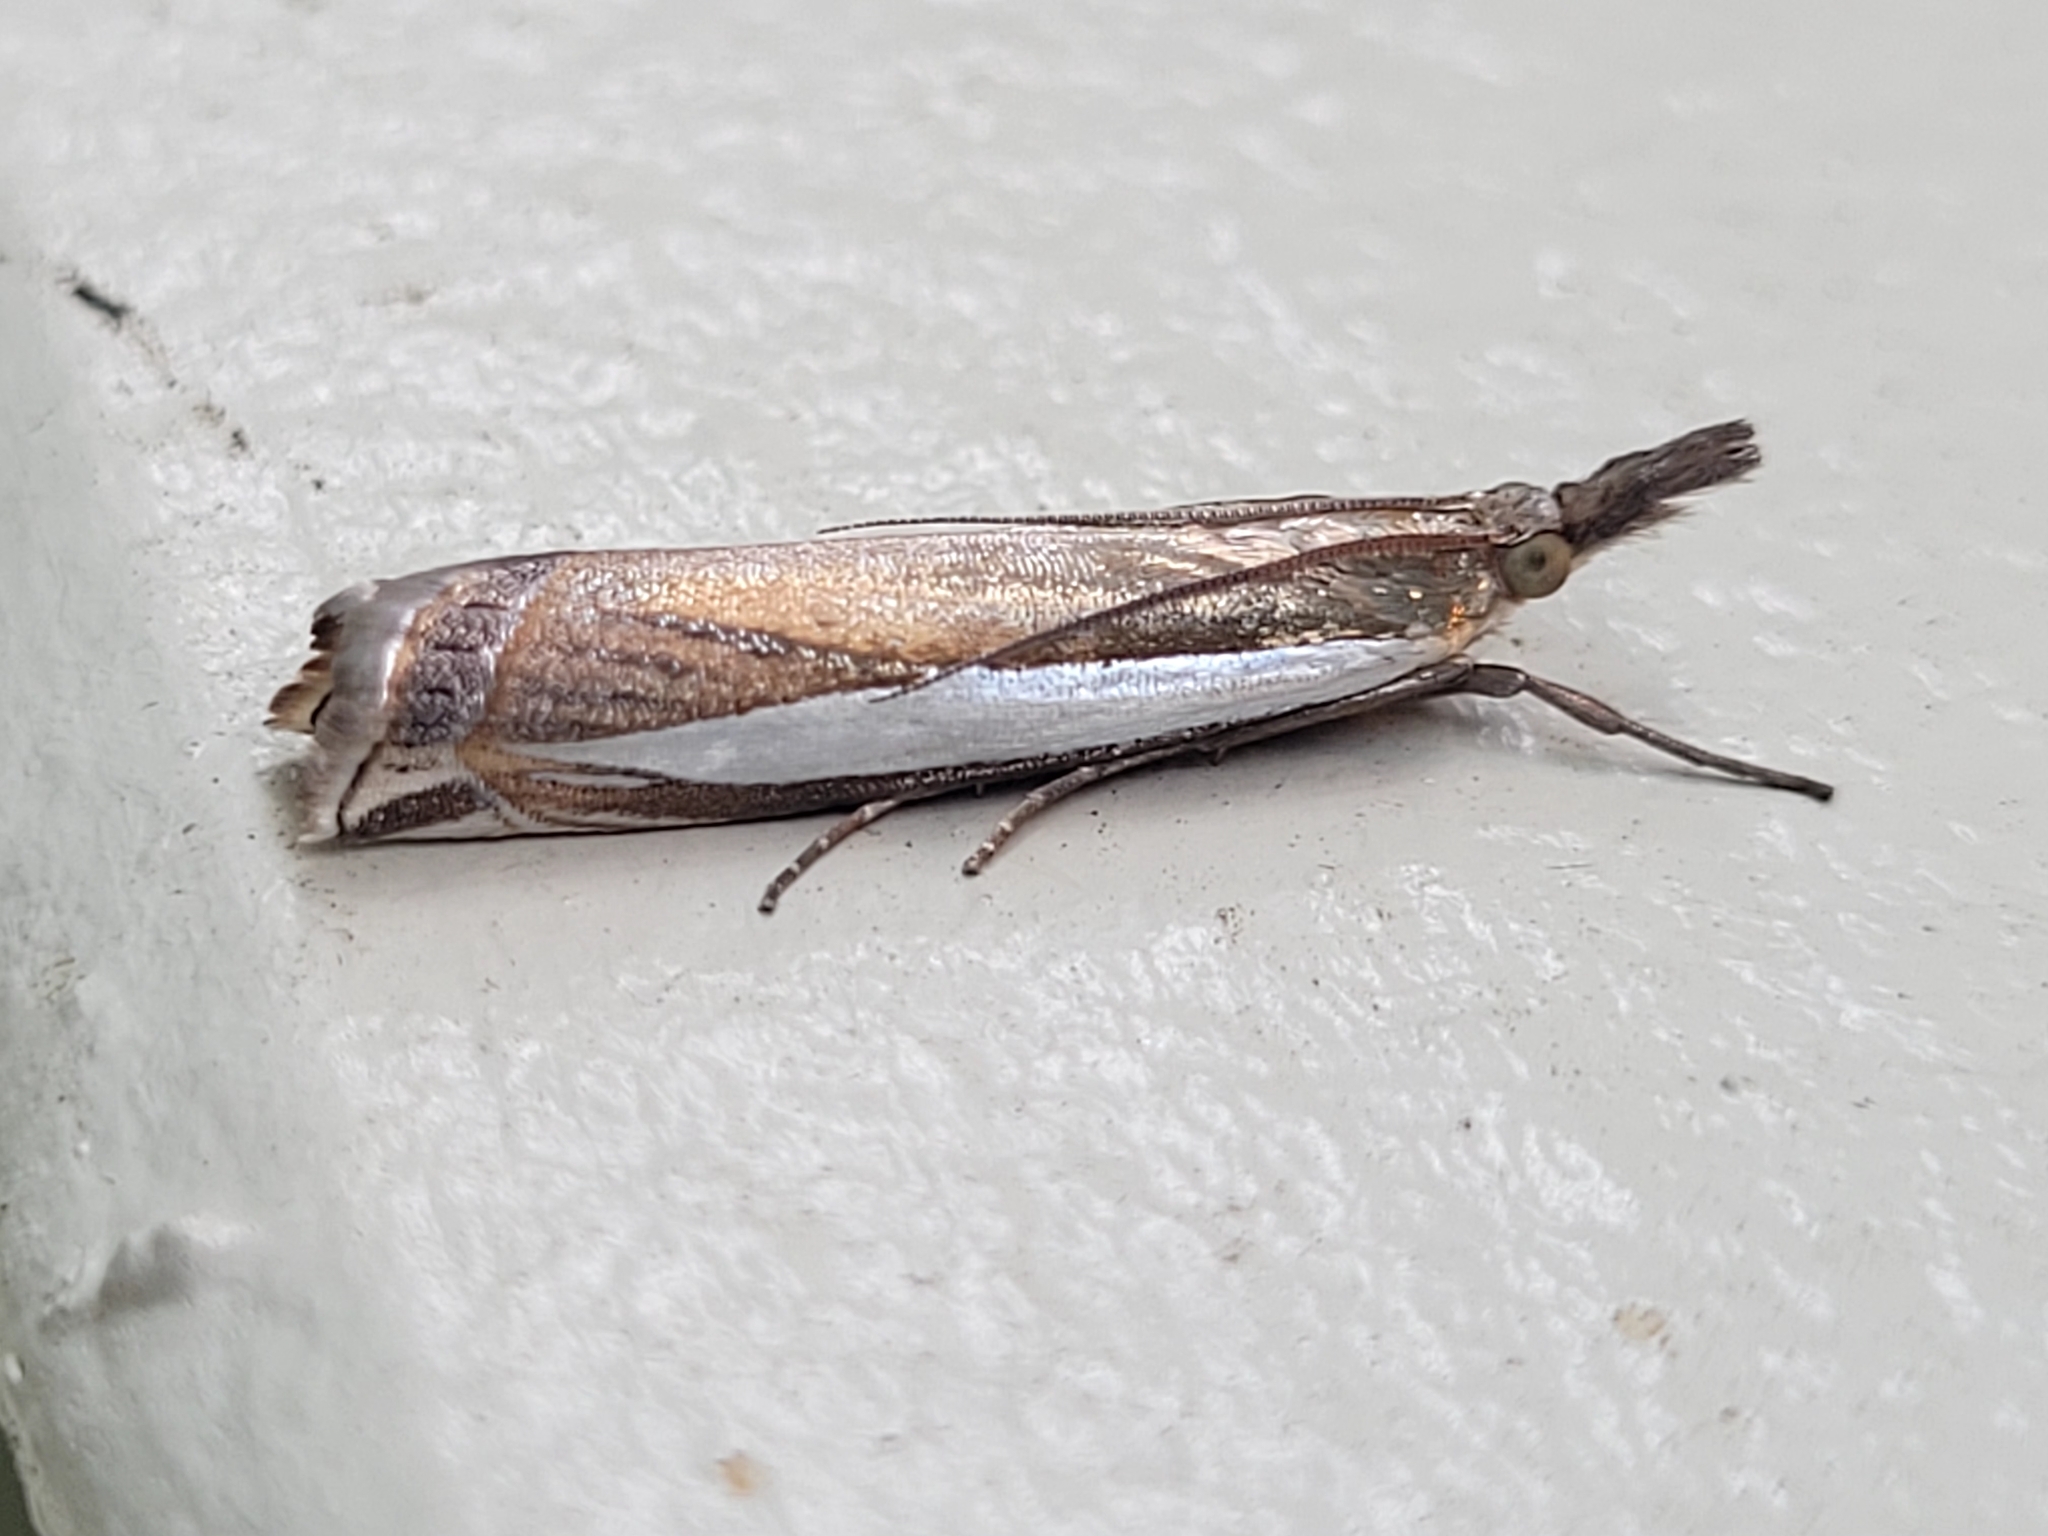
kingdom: Animalia
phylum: Arthropoda
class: Insecta
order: Lepidoptera
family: Crambidae
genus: Crambus
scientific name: Crambus leachellus
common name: Leach's grass-veneer
